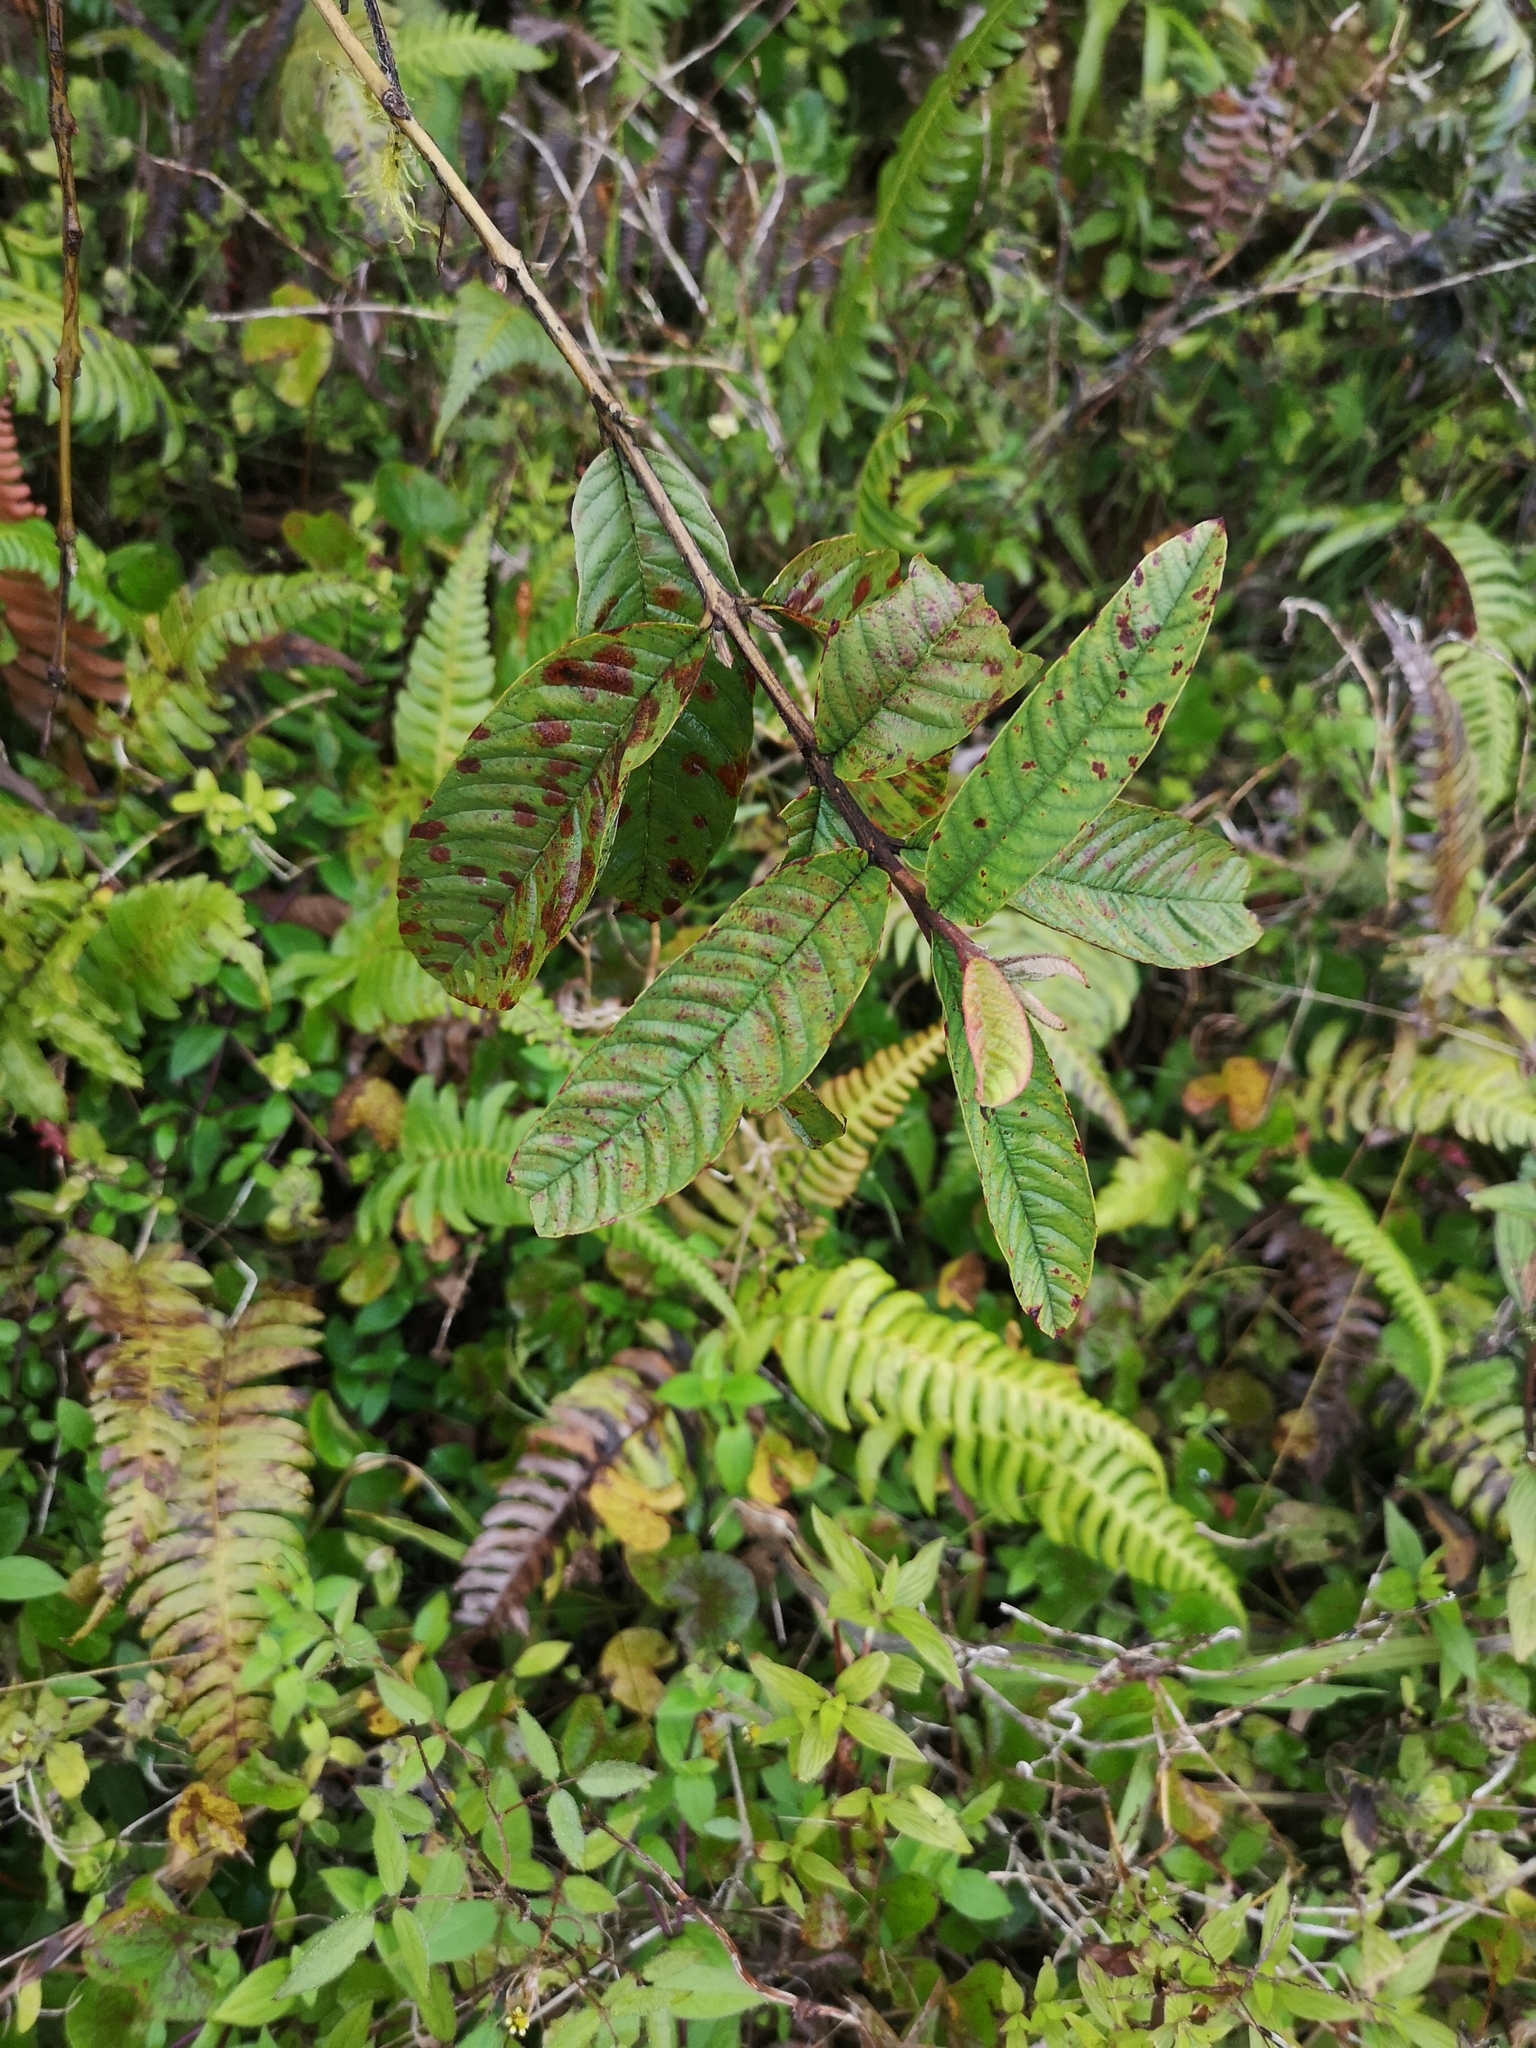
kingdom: Plantae
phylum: Tracheophyta
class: Magnoliopsida
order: Myrtales
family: Myrtaceae
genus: Psidium
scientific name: Psidium guajava
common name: Guava
